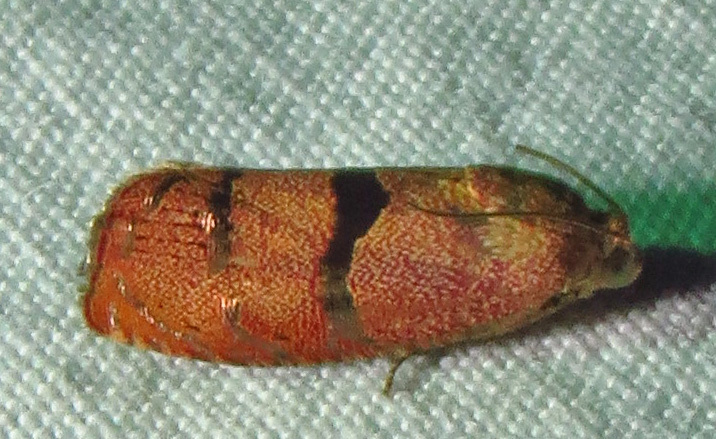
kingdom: Animalia
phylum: Arthropoda
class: Insecta
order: Lepidoptera
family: Tortricidae
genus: Cydia
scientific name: Cydia latiferreana
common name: Filbertworm moth
